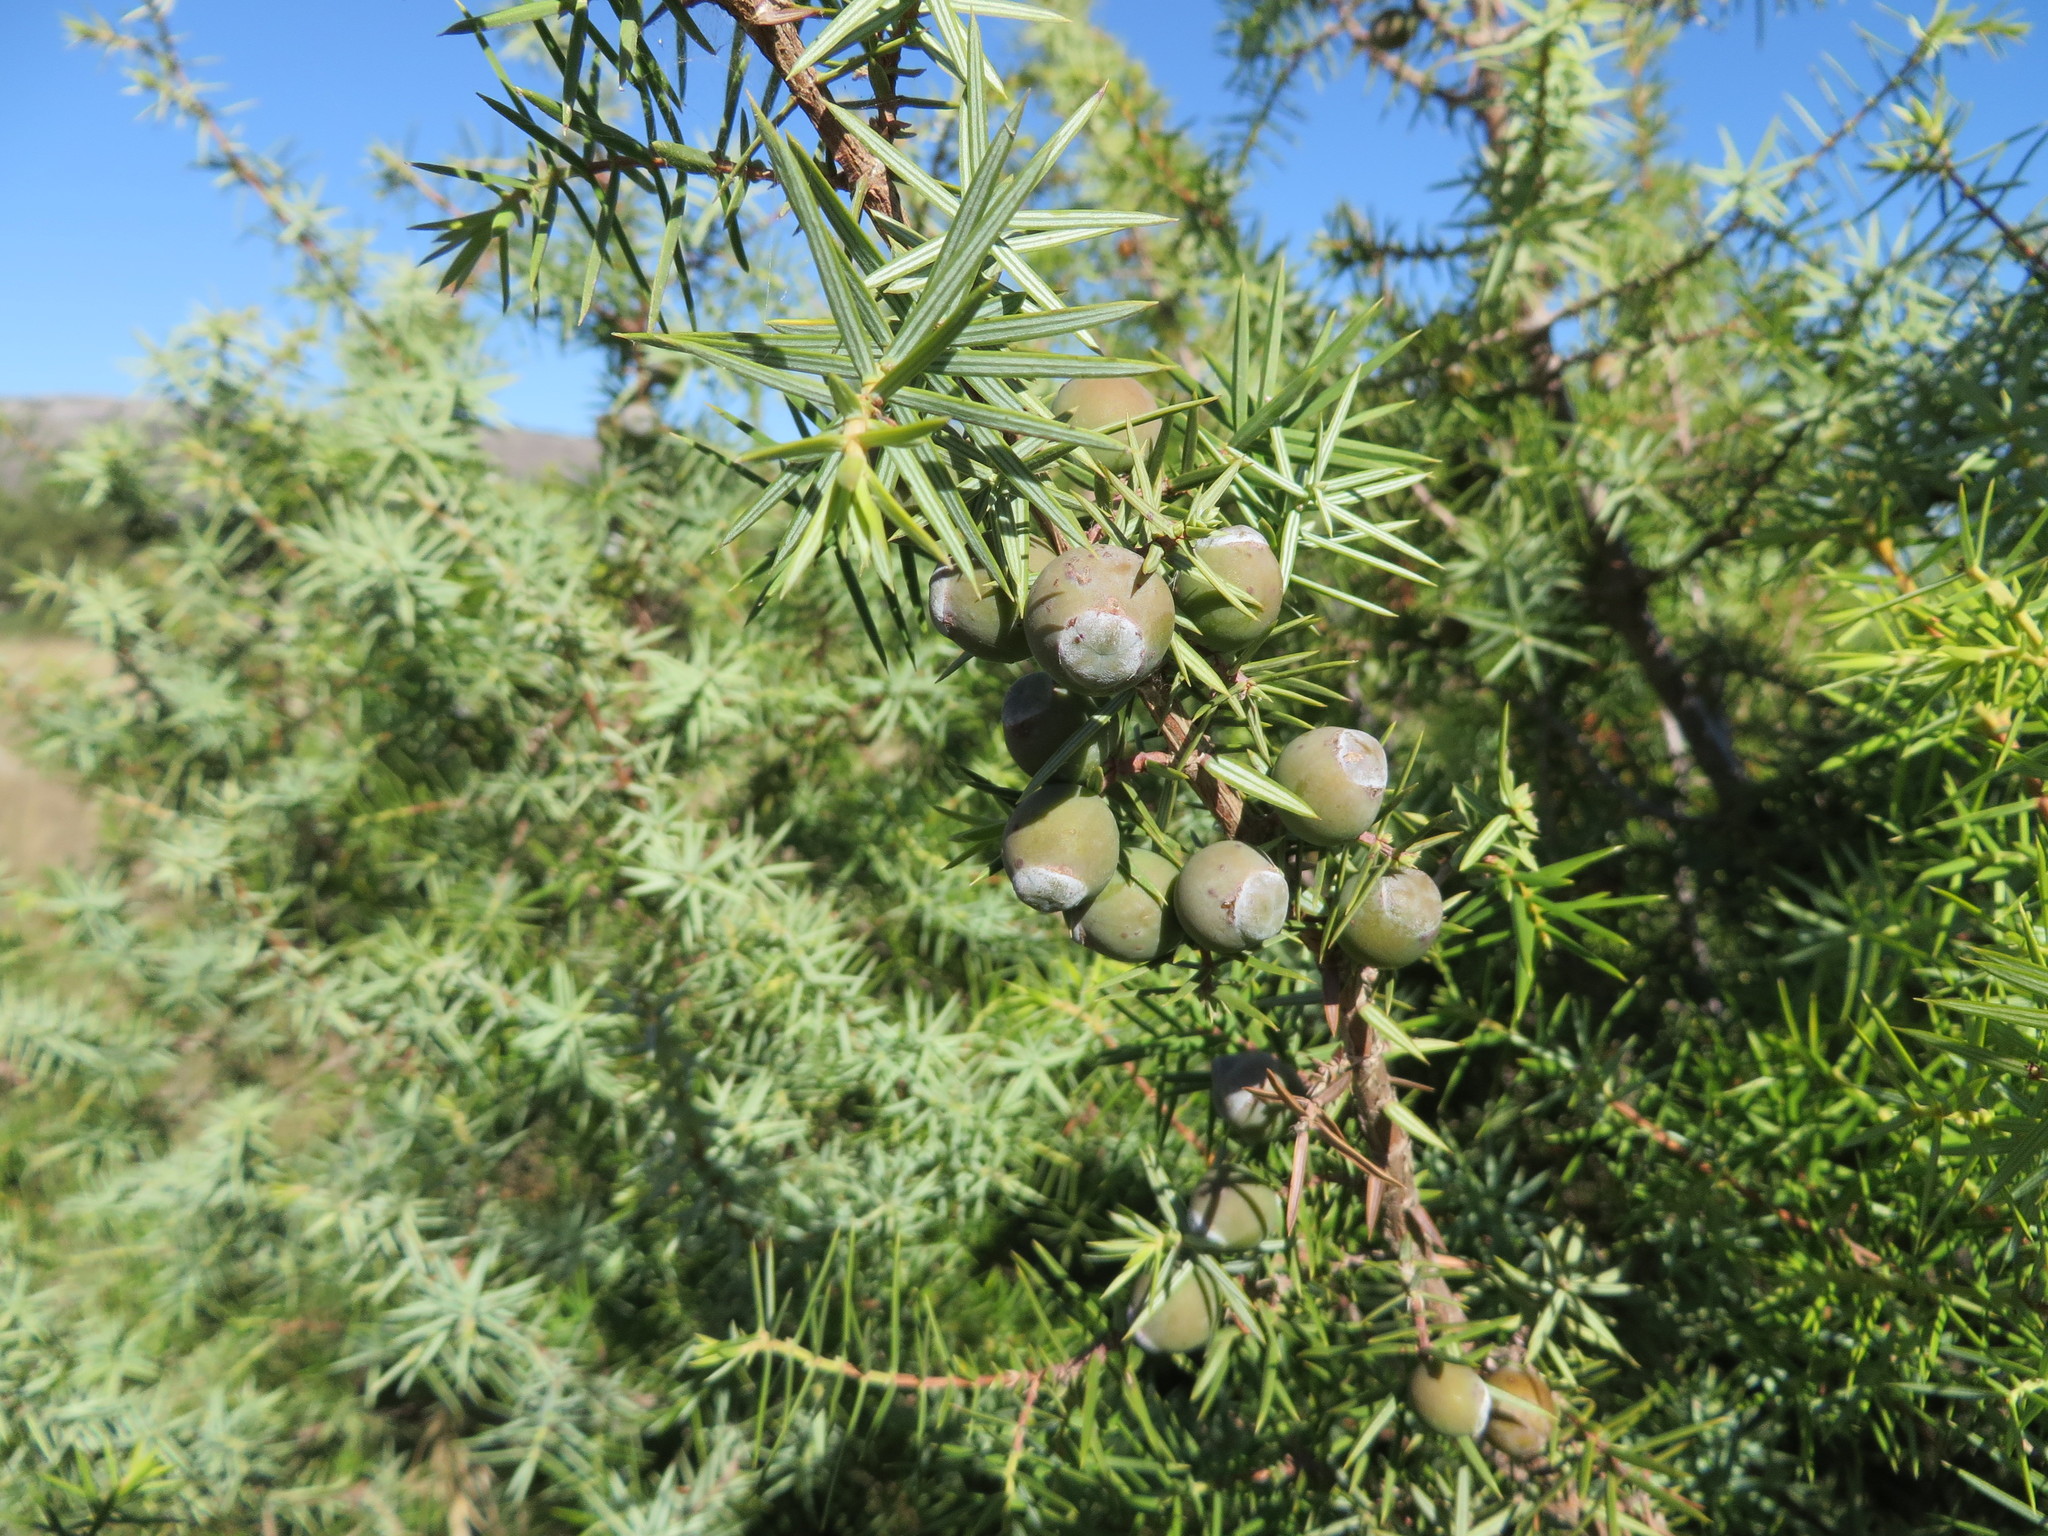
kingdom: Plantae
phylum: Tracheophyta
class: Pinopsida
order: Pinales
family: Cupressaceae
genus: Juniperus
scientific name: Juniperus oxycedrus
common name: Prickly juniper
